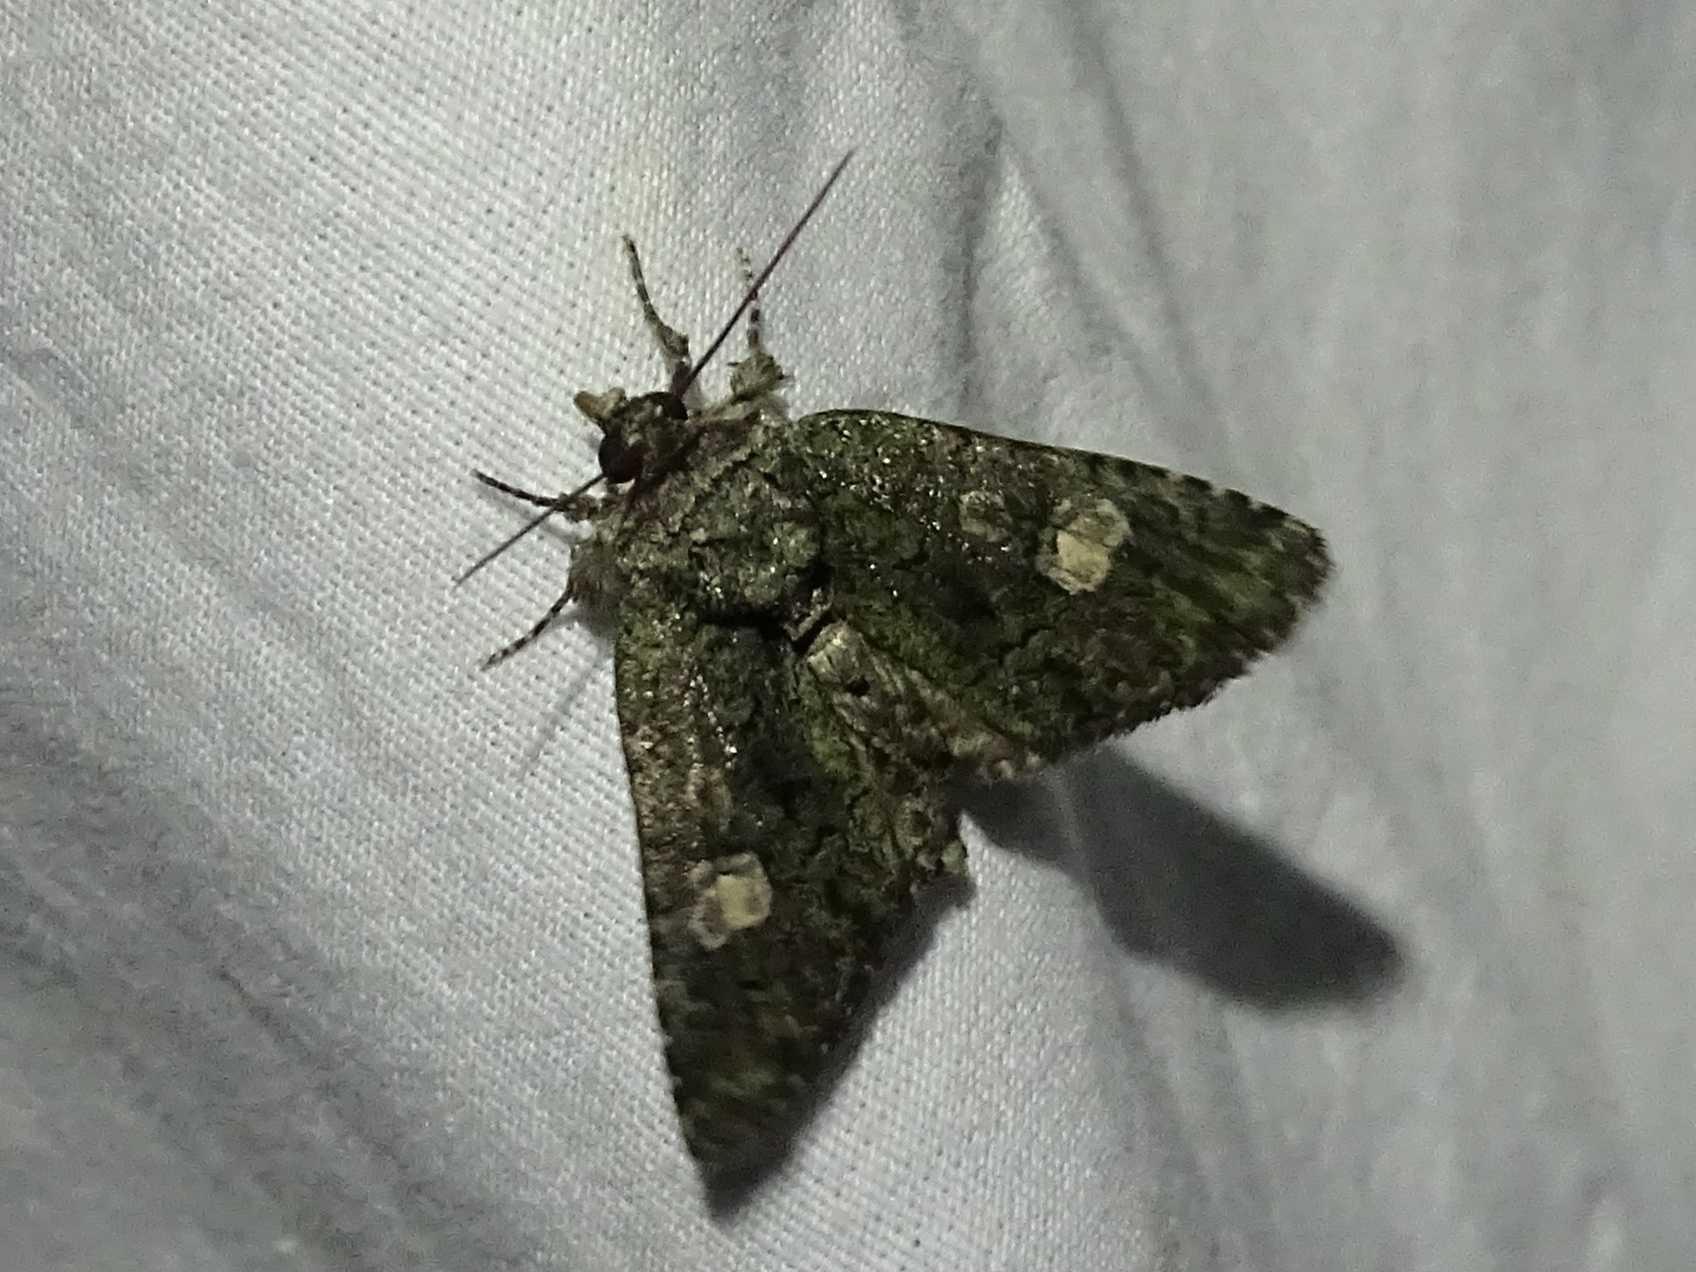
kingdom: Animalia
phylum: Arthropoda
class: Insecta
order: Lepidoptera
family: Noctuidae
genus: Phosphila
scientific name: Phosphila miselioides
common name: Spotted phosphila moth
